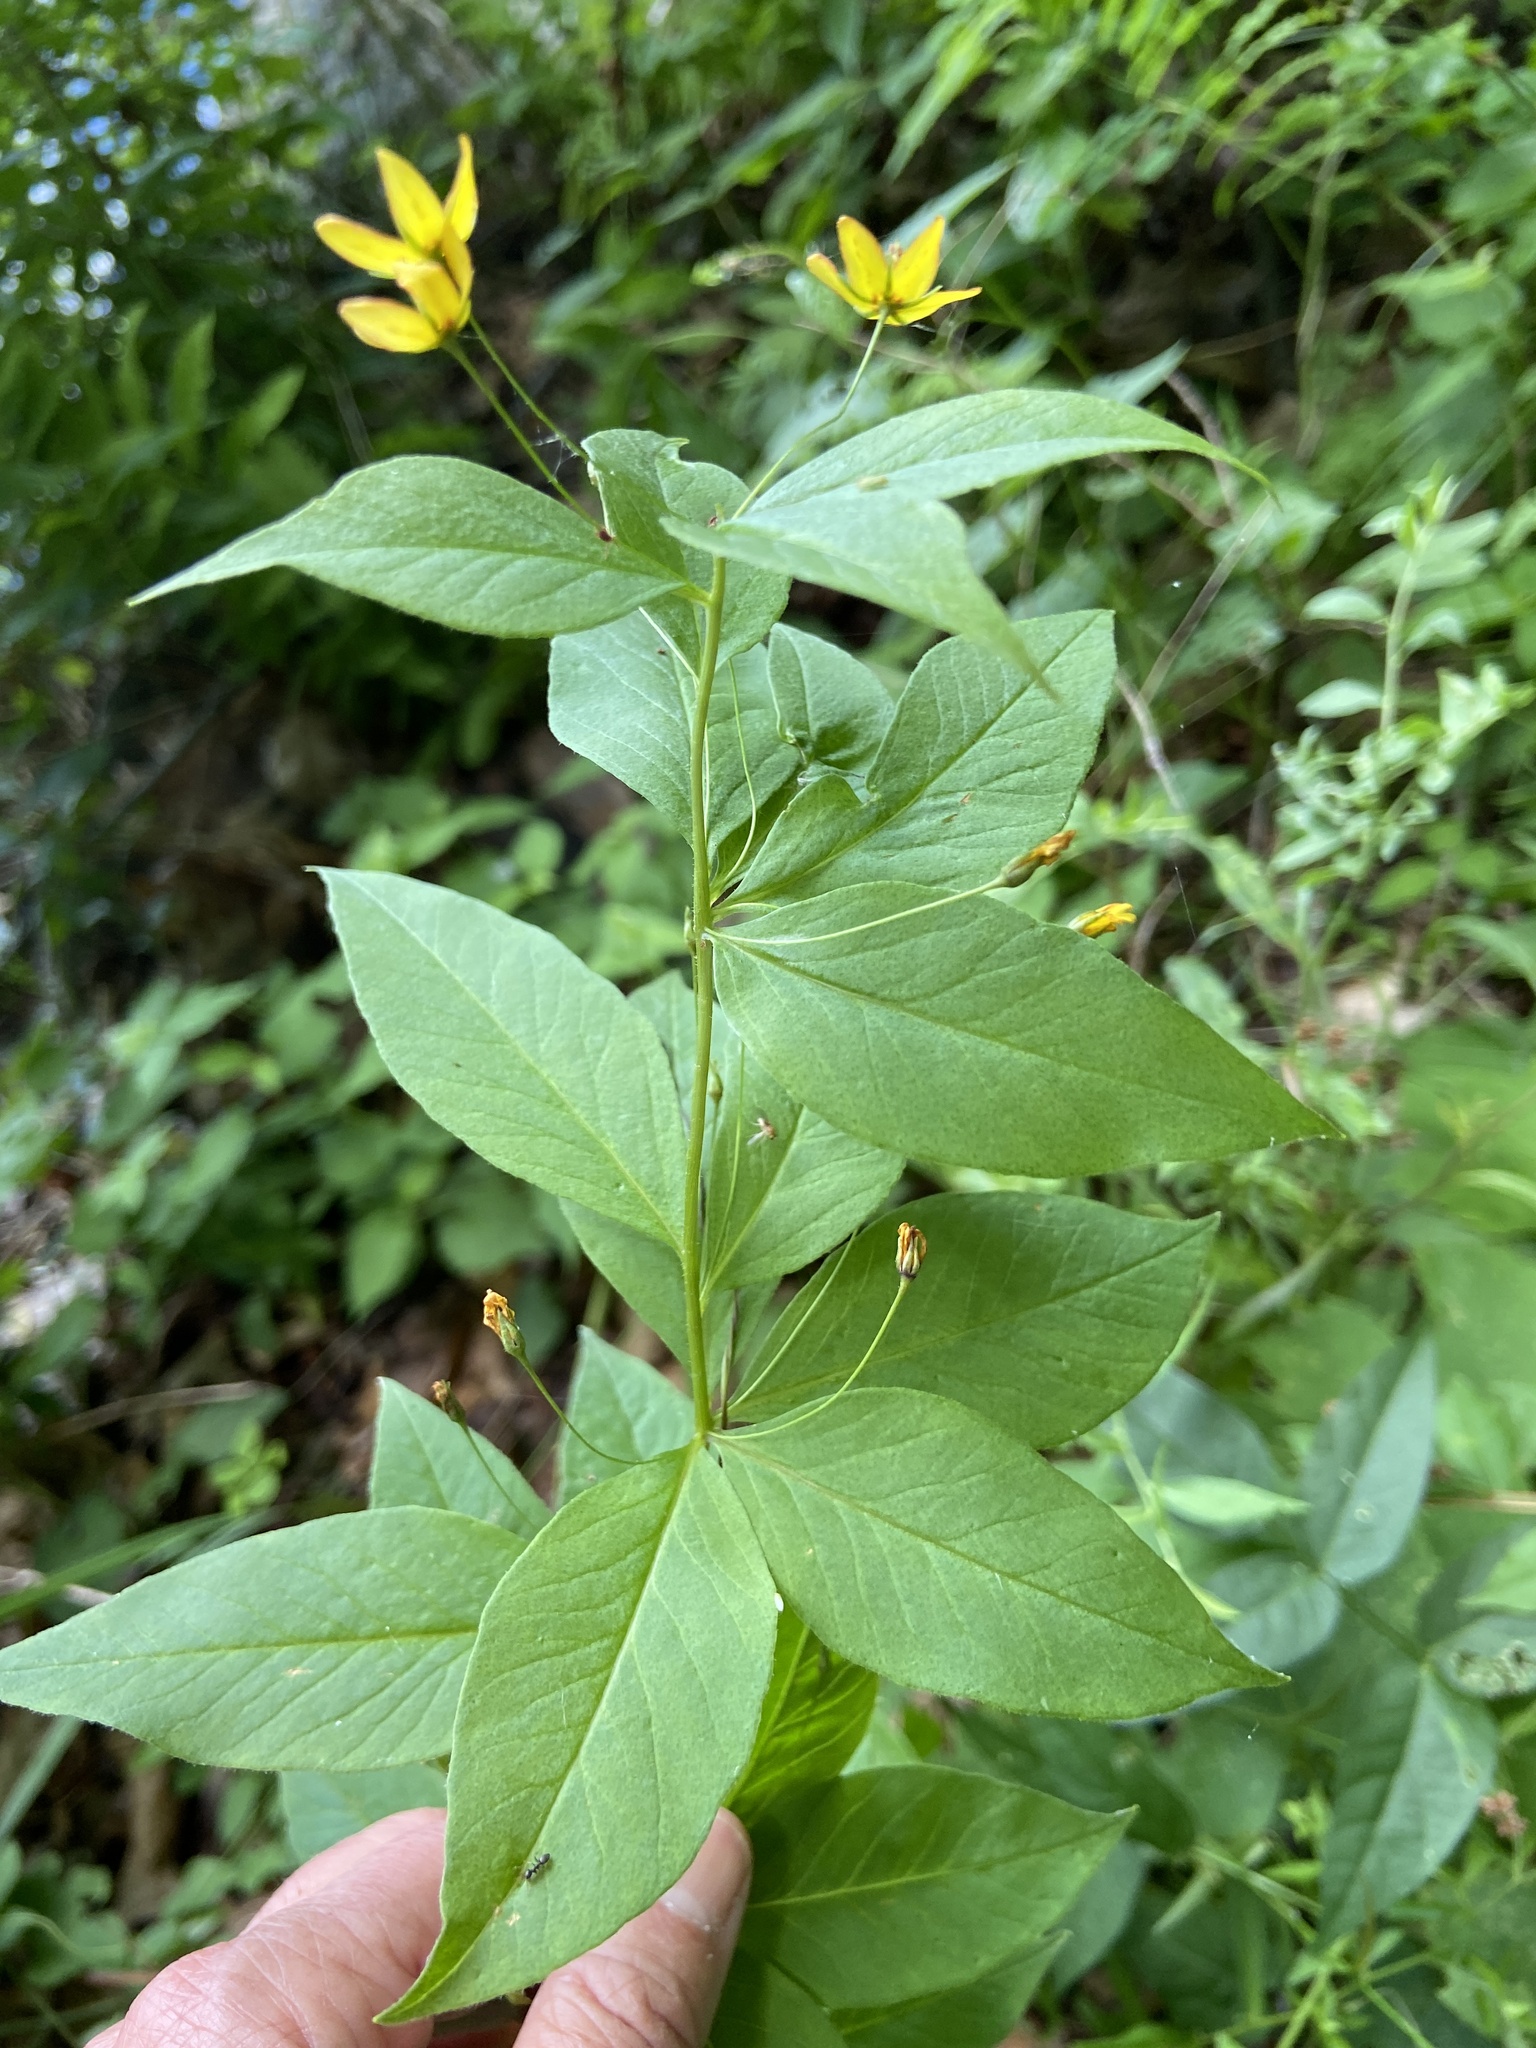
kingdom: Plantae
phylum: Tracheophyta
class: Magnoliopsida
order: Ericales
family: Primulaceae
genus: Lysimachia
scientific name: Lysimachia quadrifolia
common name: Whorled loosestrife
